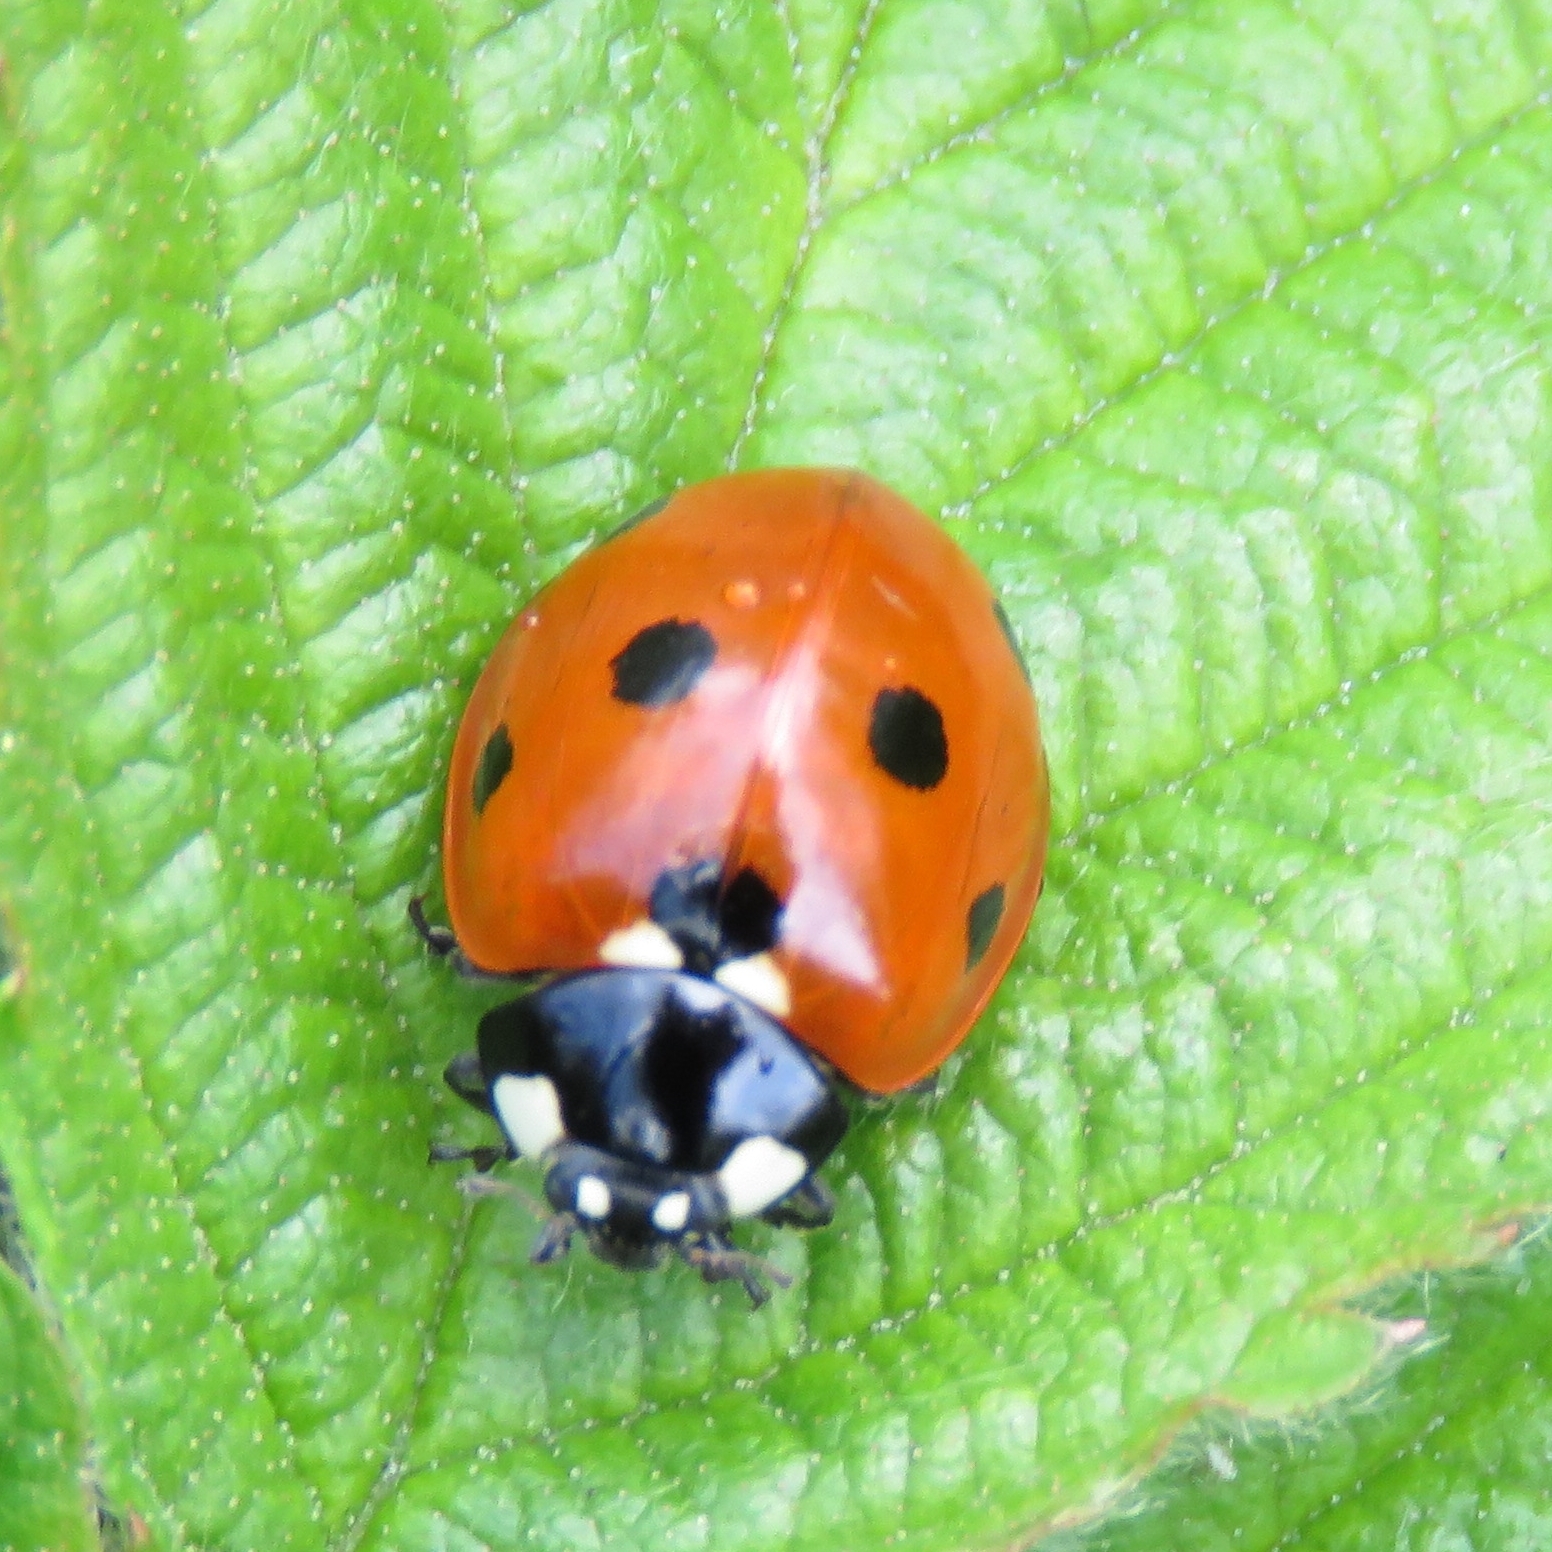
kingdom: Animalia
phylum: Arthropoda
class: Insecta
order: Coleoptera
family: Coccinellidae
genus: Coccinella
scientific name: Coccinella septempunctata
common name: Sevenspotted lady beetle
